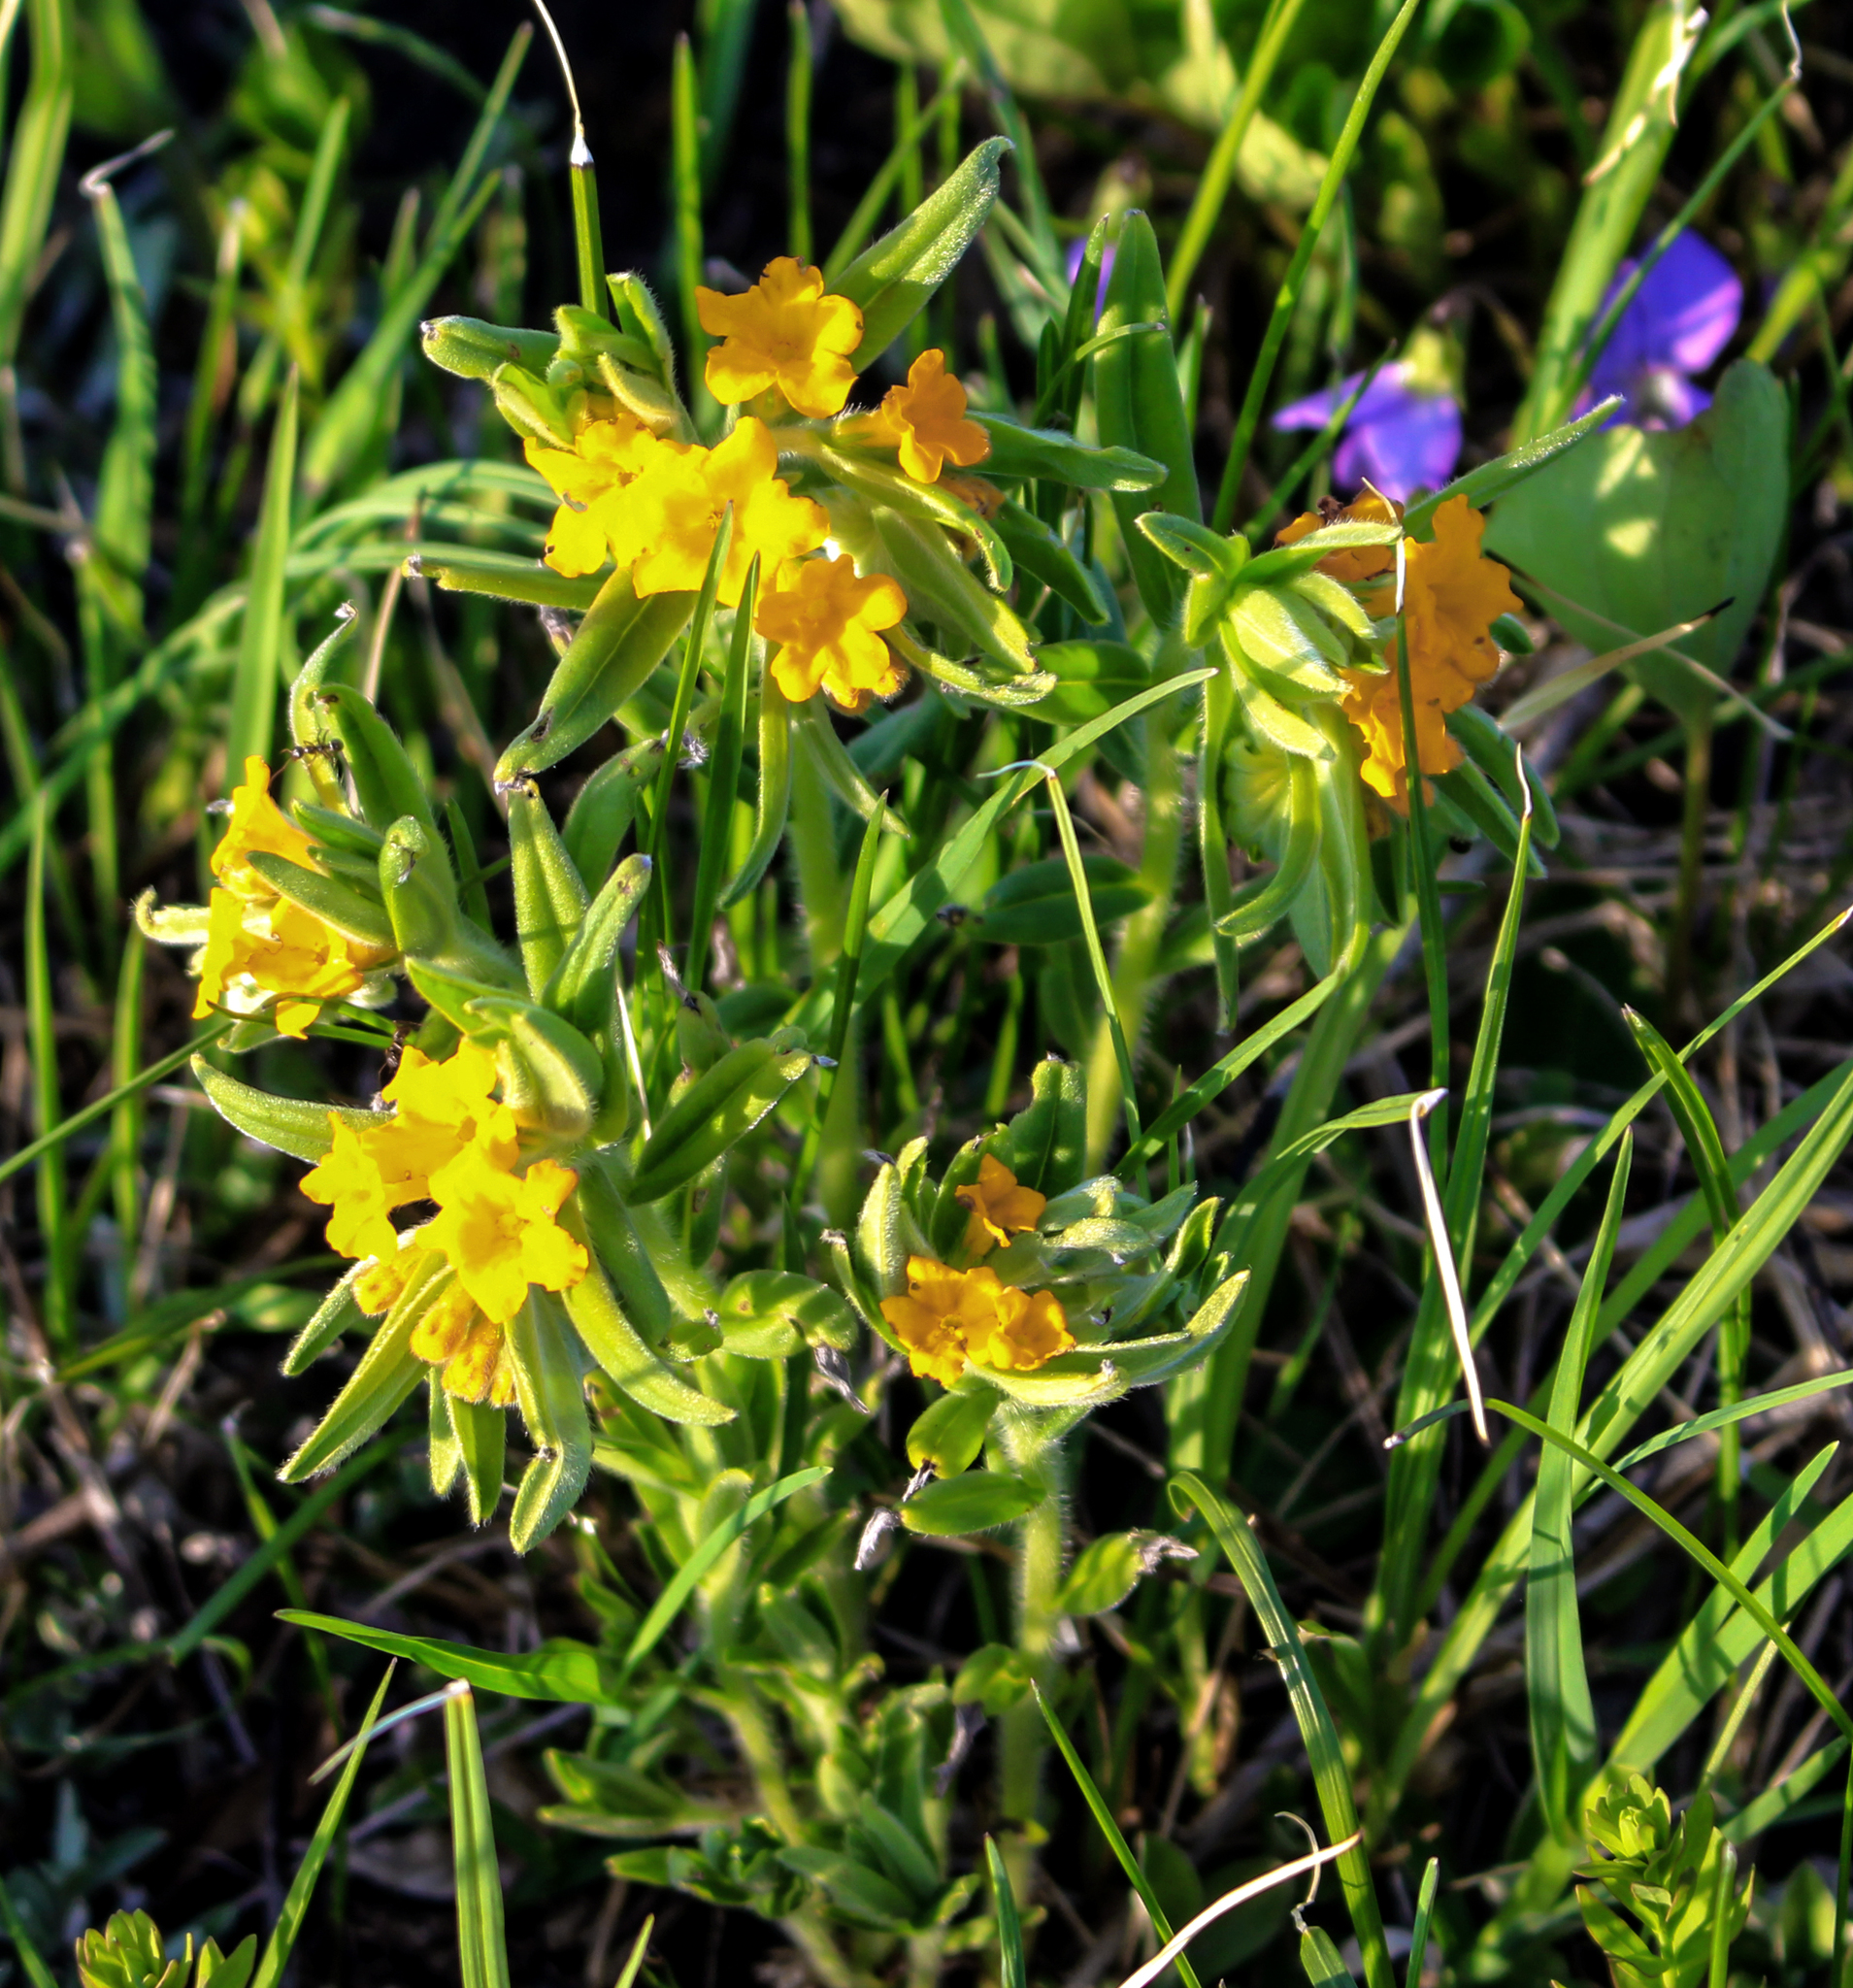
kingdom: Plantae
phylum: Tracheophyta
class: Magnoliopsida
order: Boraginales
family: Boraginaceae
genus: Lithospermum
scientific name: Lithospermum canescens
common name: Hoary puccoon
